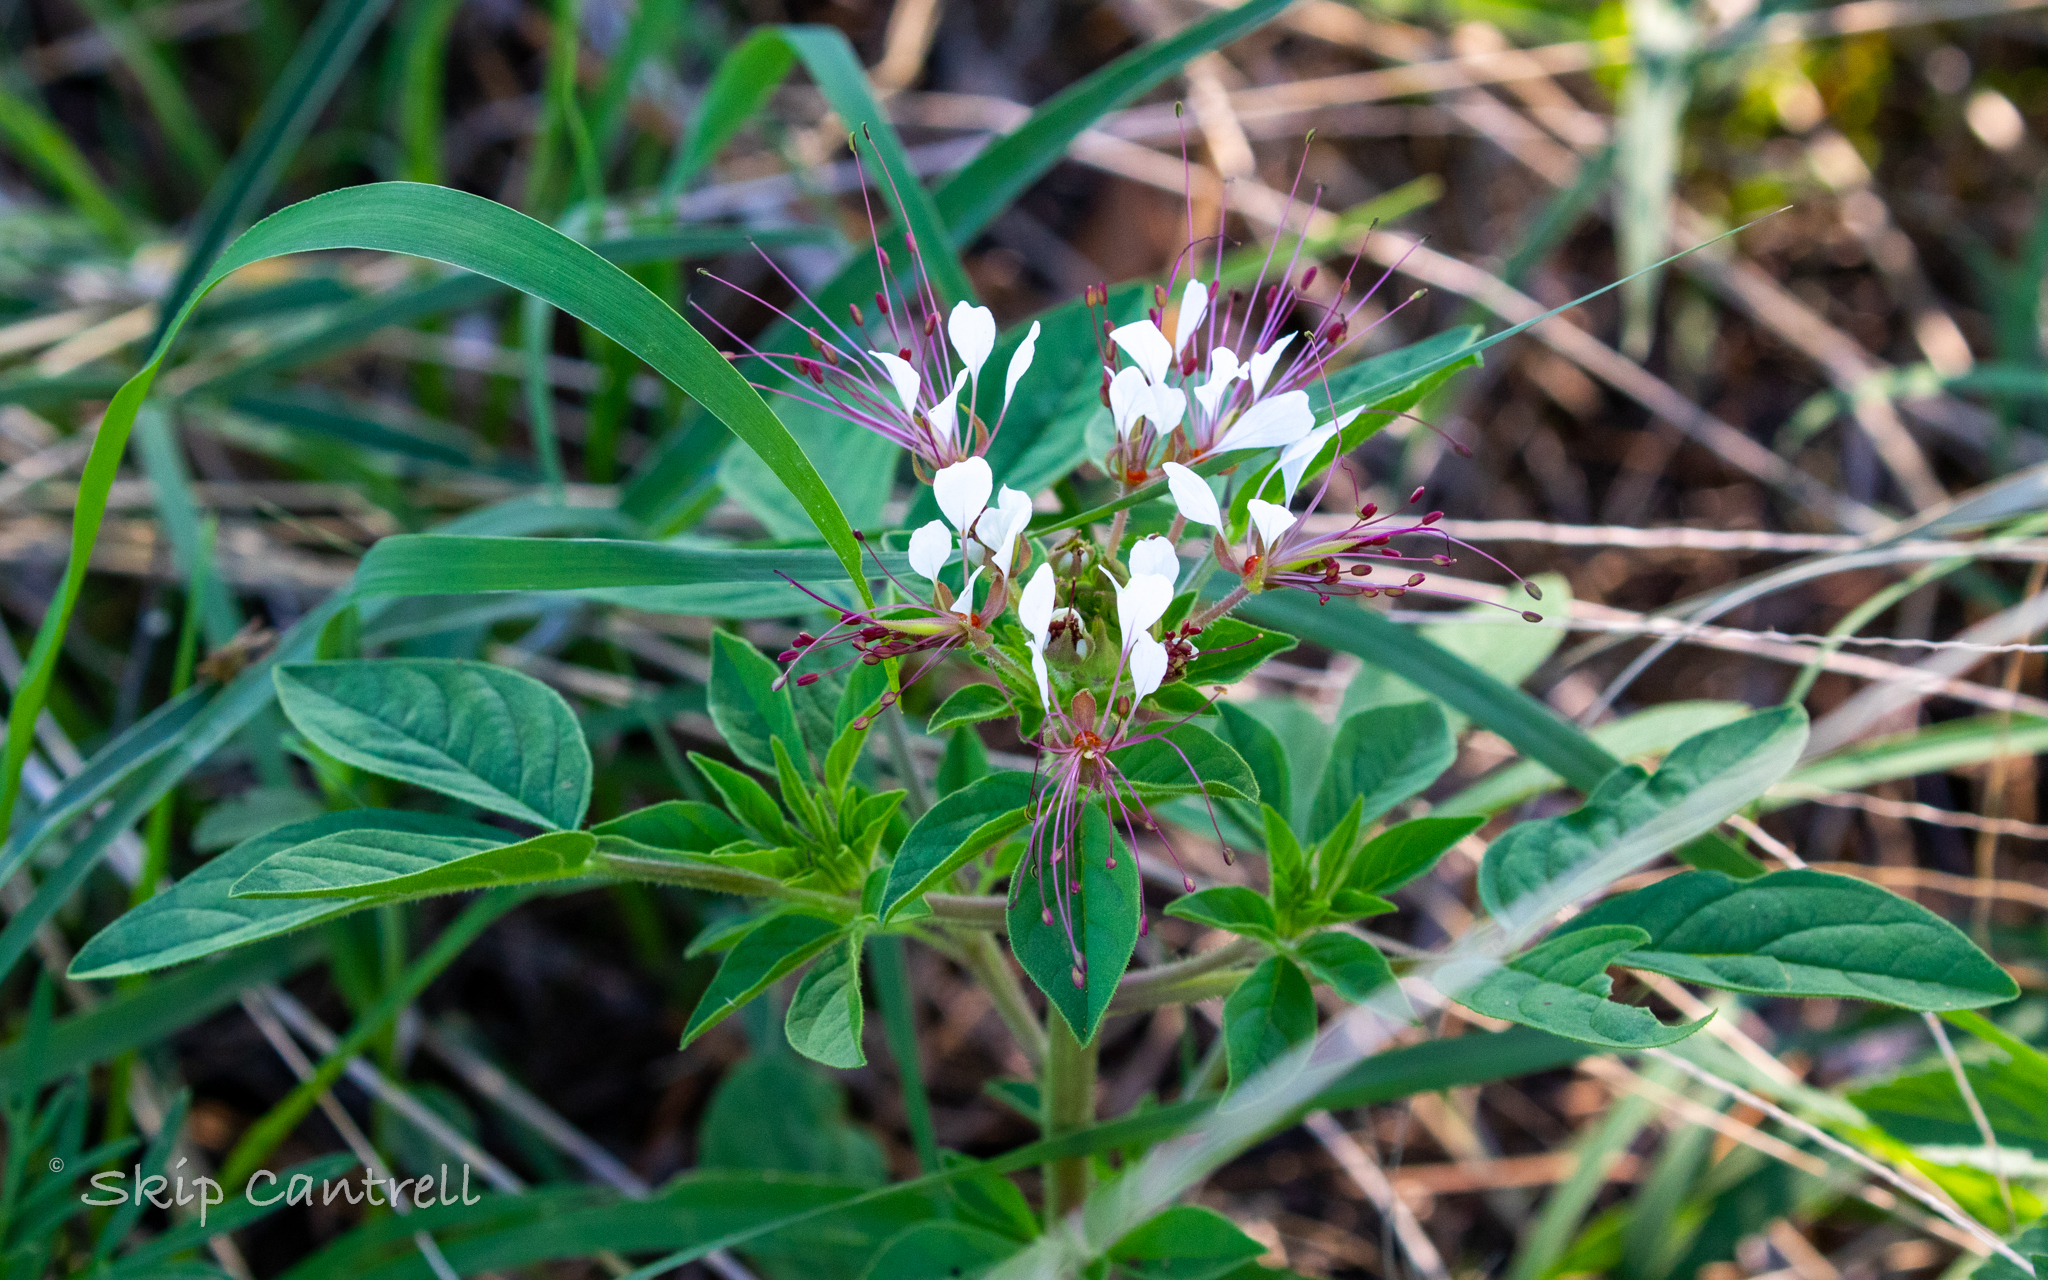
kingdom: Plantae
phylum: Tracheophyta
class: Magnoliopsida
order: Brassicales
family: Cleomaceae
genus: Polanisia
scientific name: Polanisia dodecandra
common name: Clammyweed
